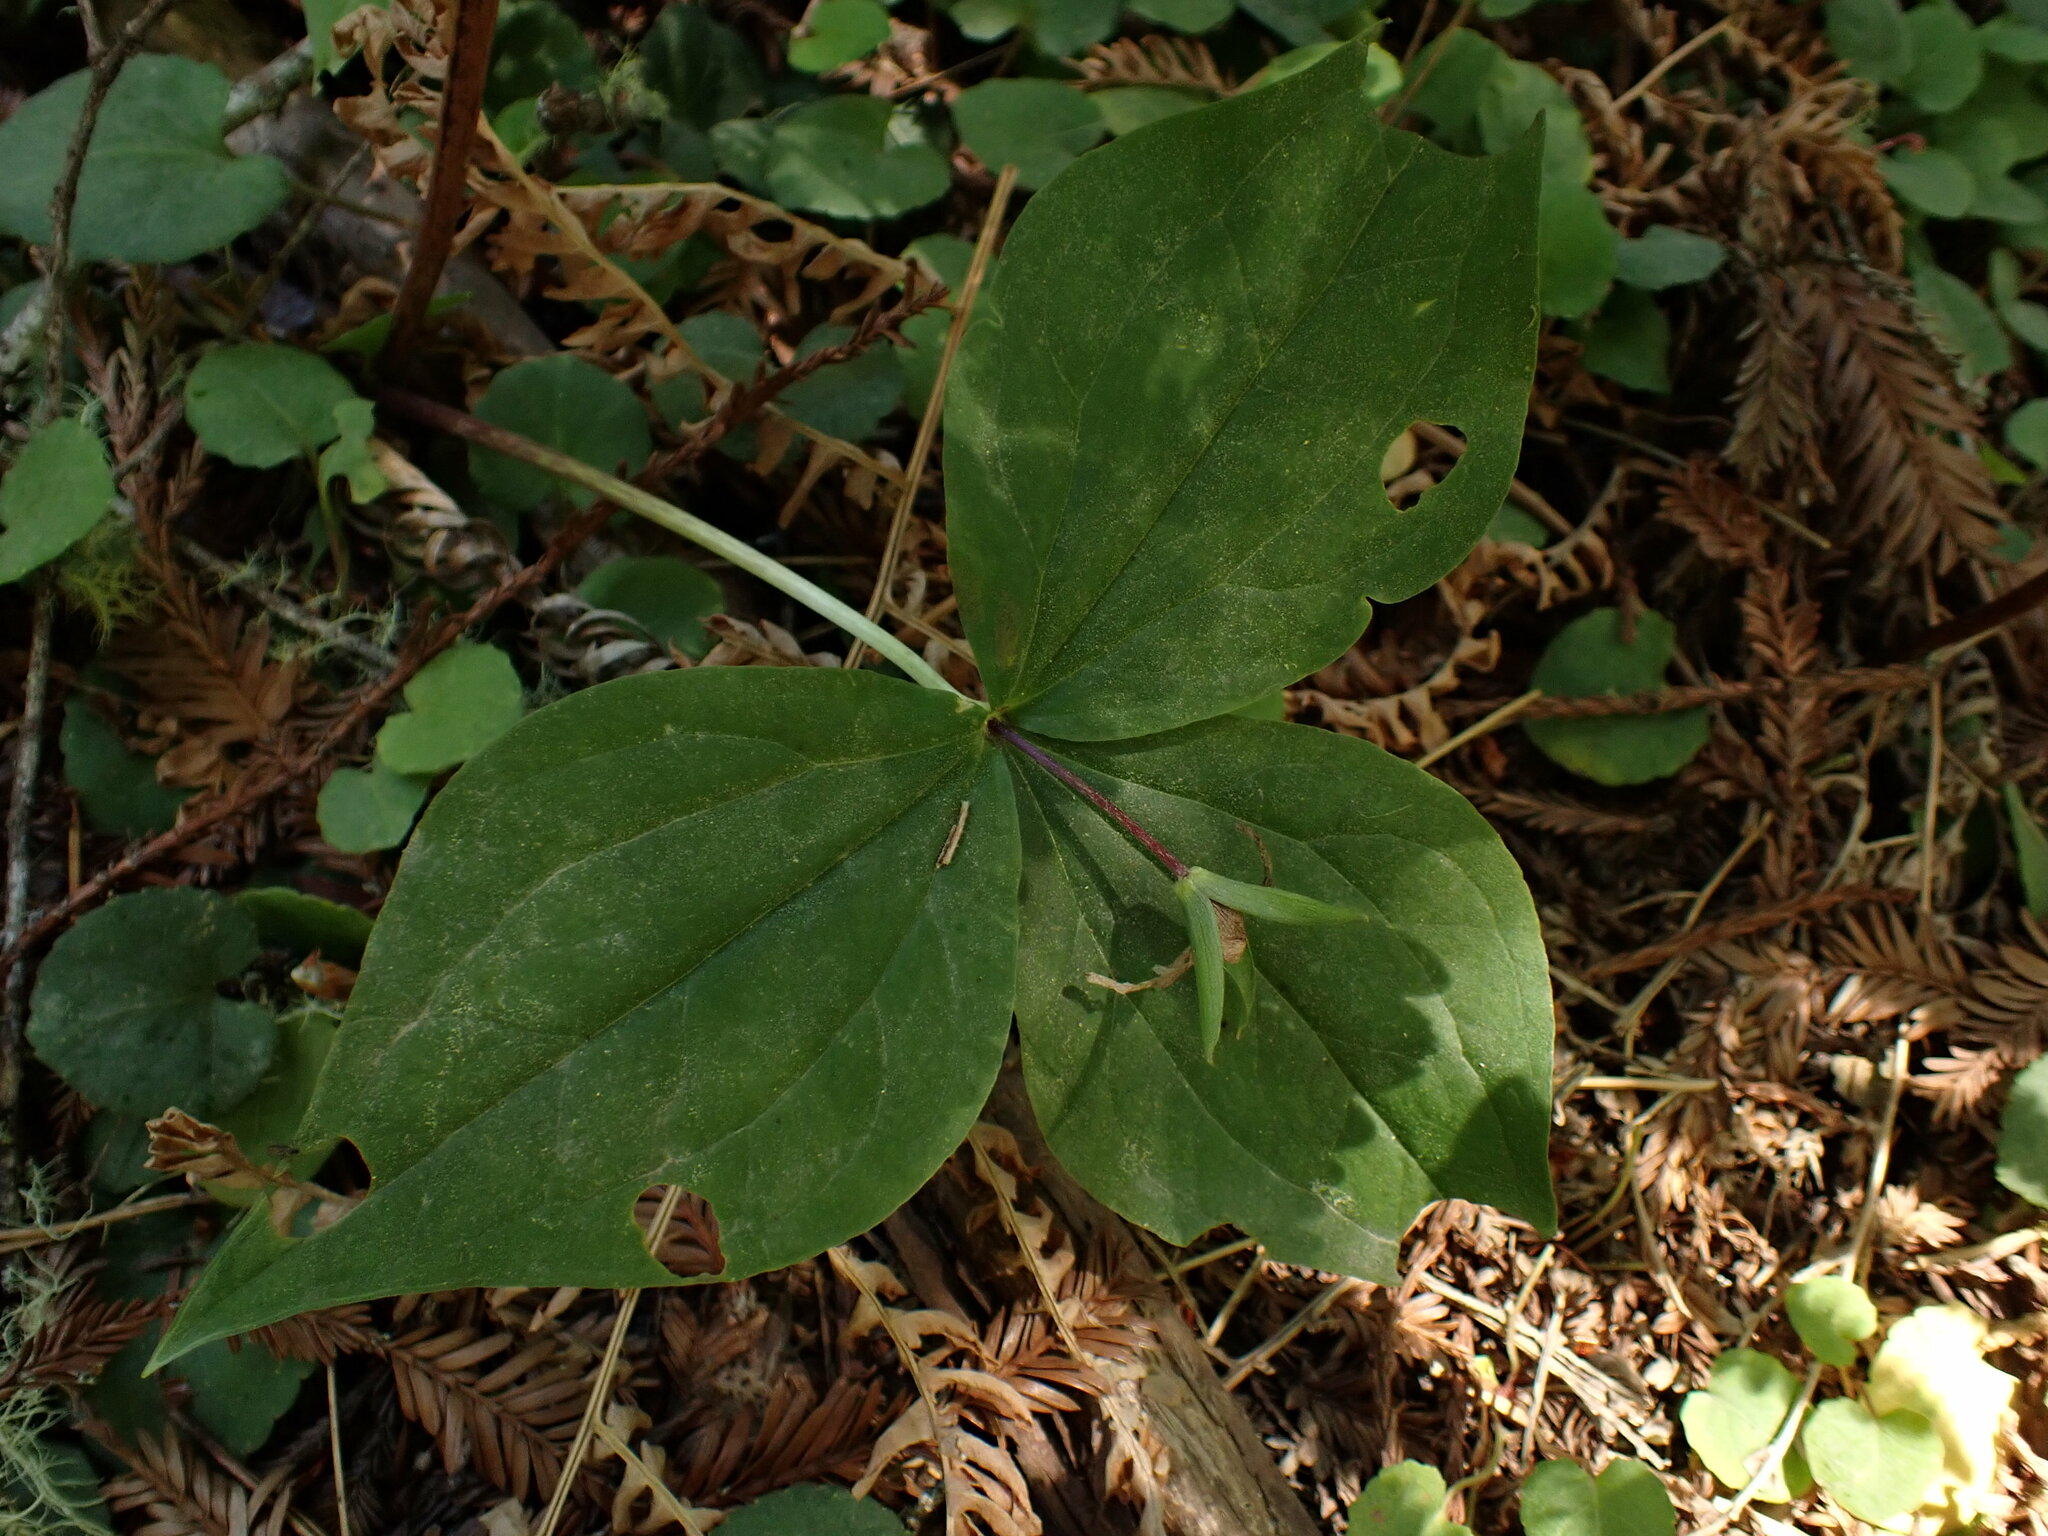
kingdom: Plantae
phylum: Tracheophyta
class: Liliopsida
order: Liliales
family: Melanthiaceae
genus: Trillium
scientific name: Trillium ovatum
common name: Pacific trillium
